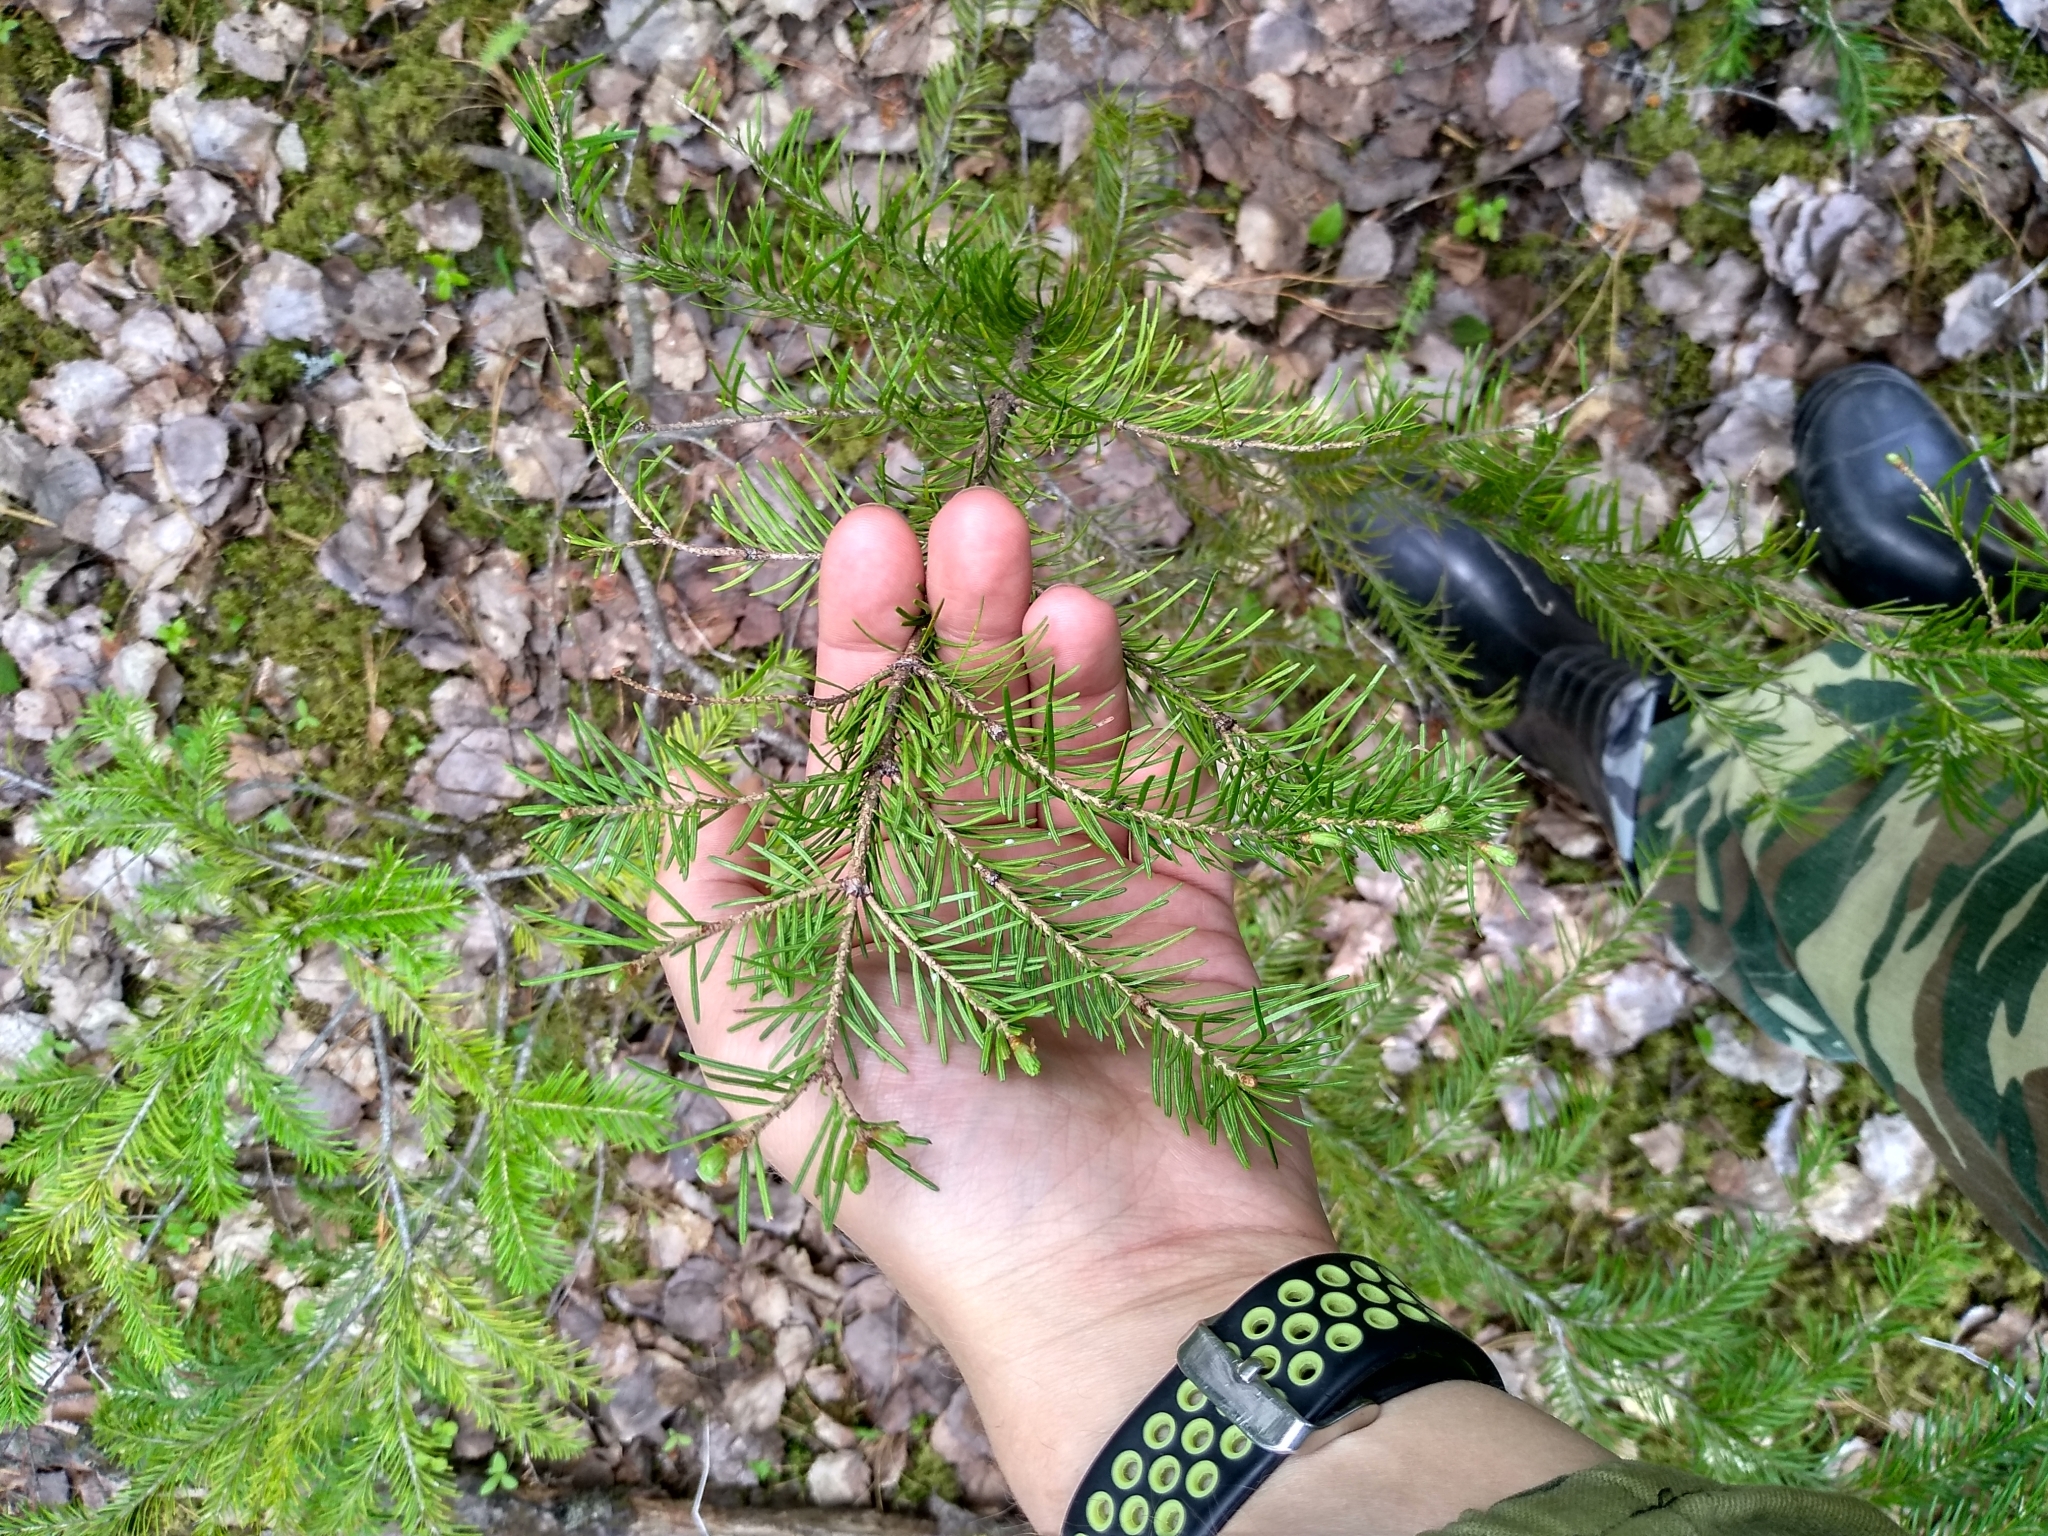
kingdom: Plantae
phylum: Tracheophyta
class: Pinopsida
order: Pinales
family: Pinaceae
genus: Abies
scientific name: Abies sibirica
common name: Siberian fir
